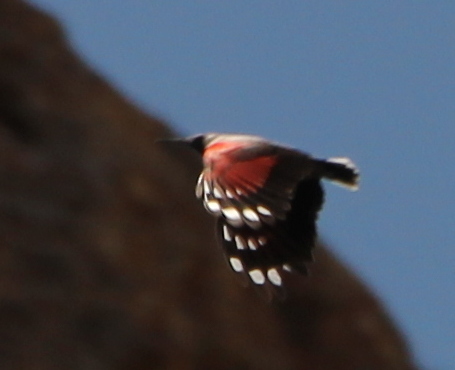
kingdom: Animalia
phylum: Chordata
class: Aves
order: Passeriformes
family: Tichodromidae
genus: Tichodroma
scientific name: Tichodroma muraria
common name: Wallcreeper
